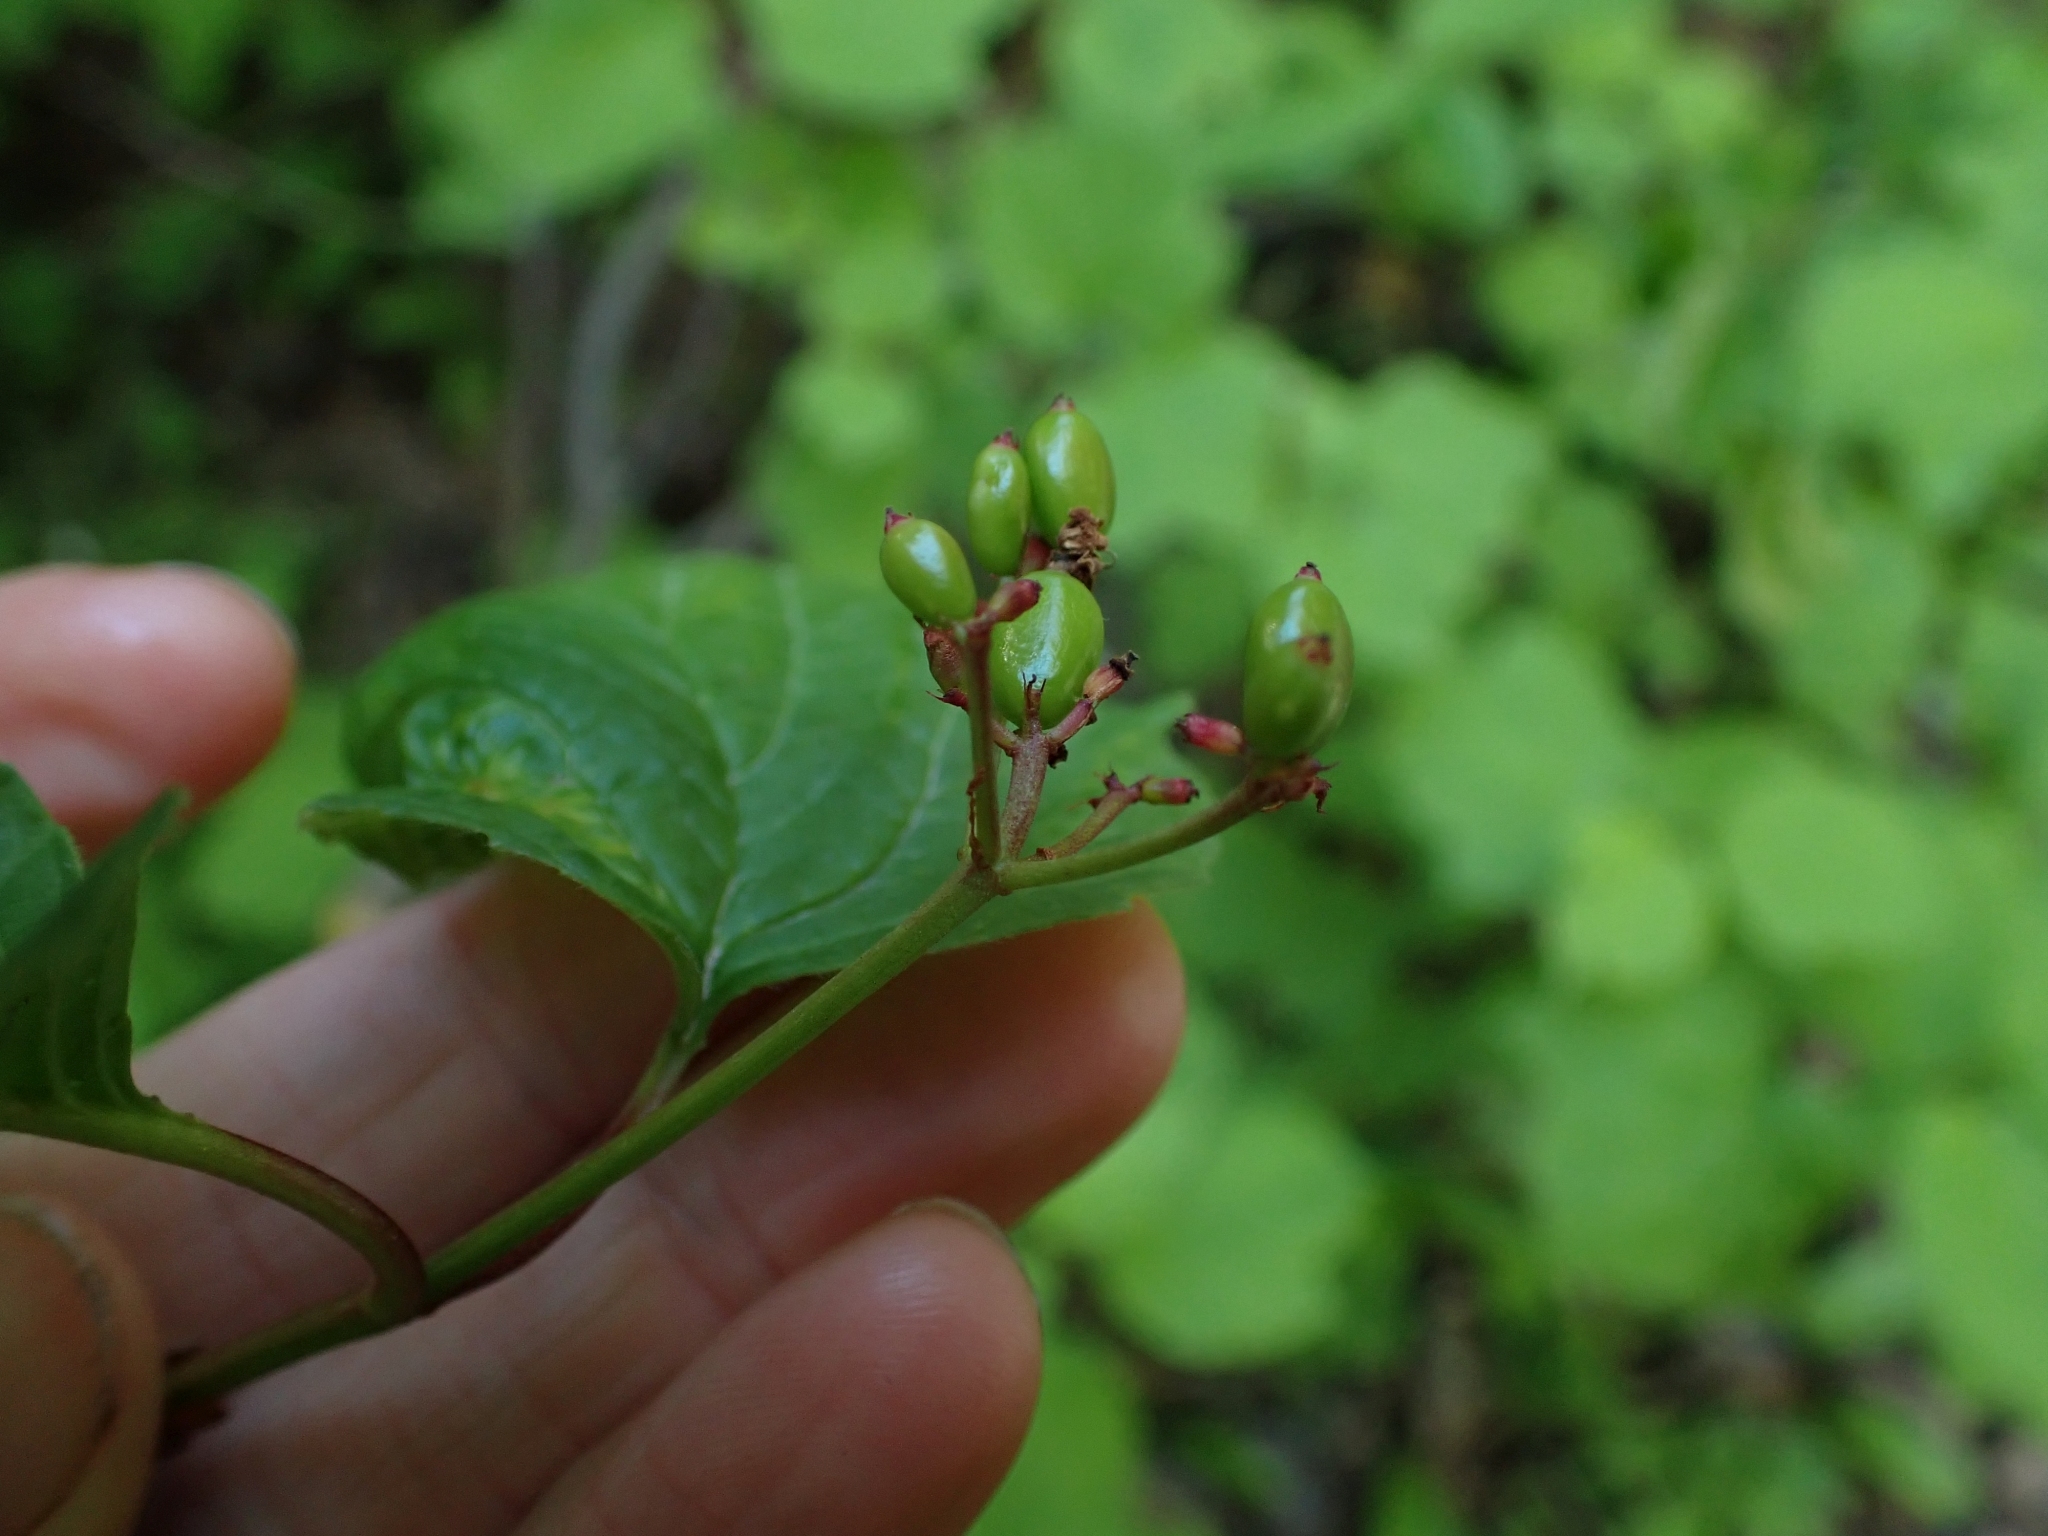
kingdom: Plantae
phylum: Tracheophyta
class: Magnoliopsida
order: Dipsacales
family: Viburnaceae
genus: Viburnum
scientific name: Viburnum edule
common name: Mooseberry
